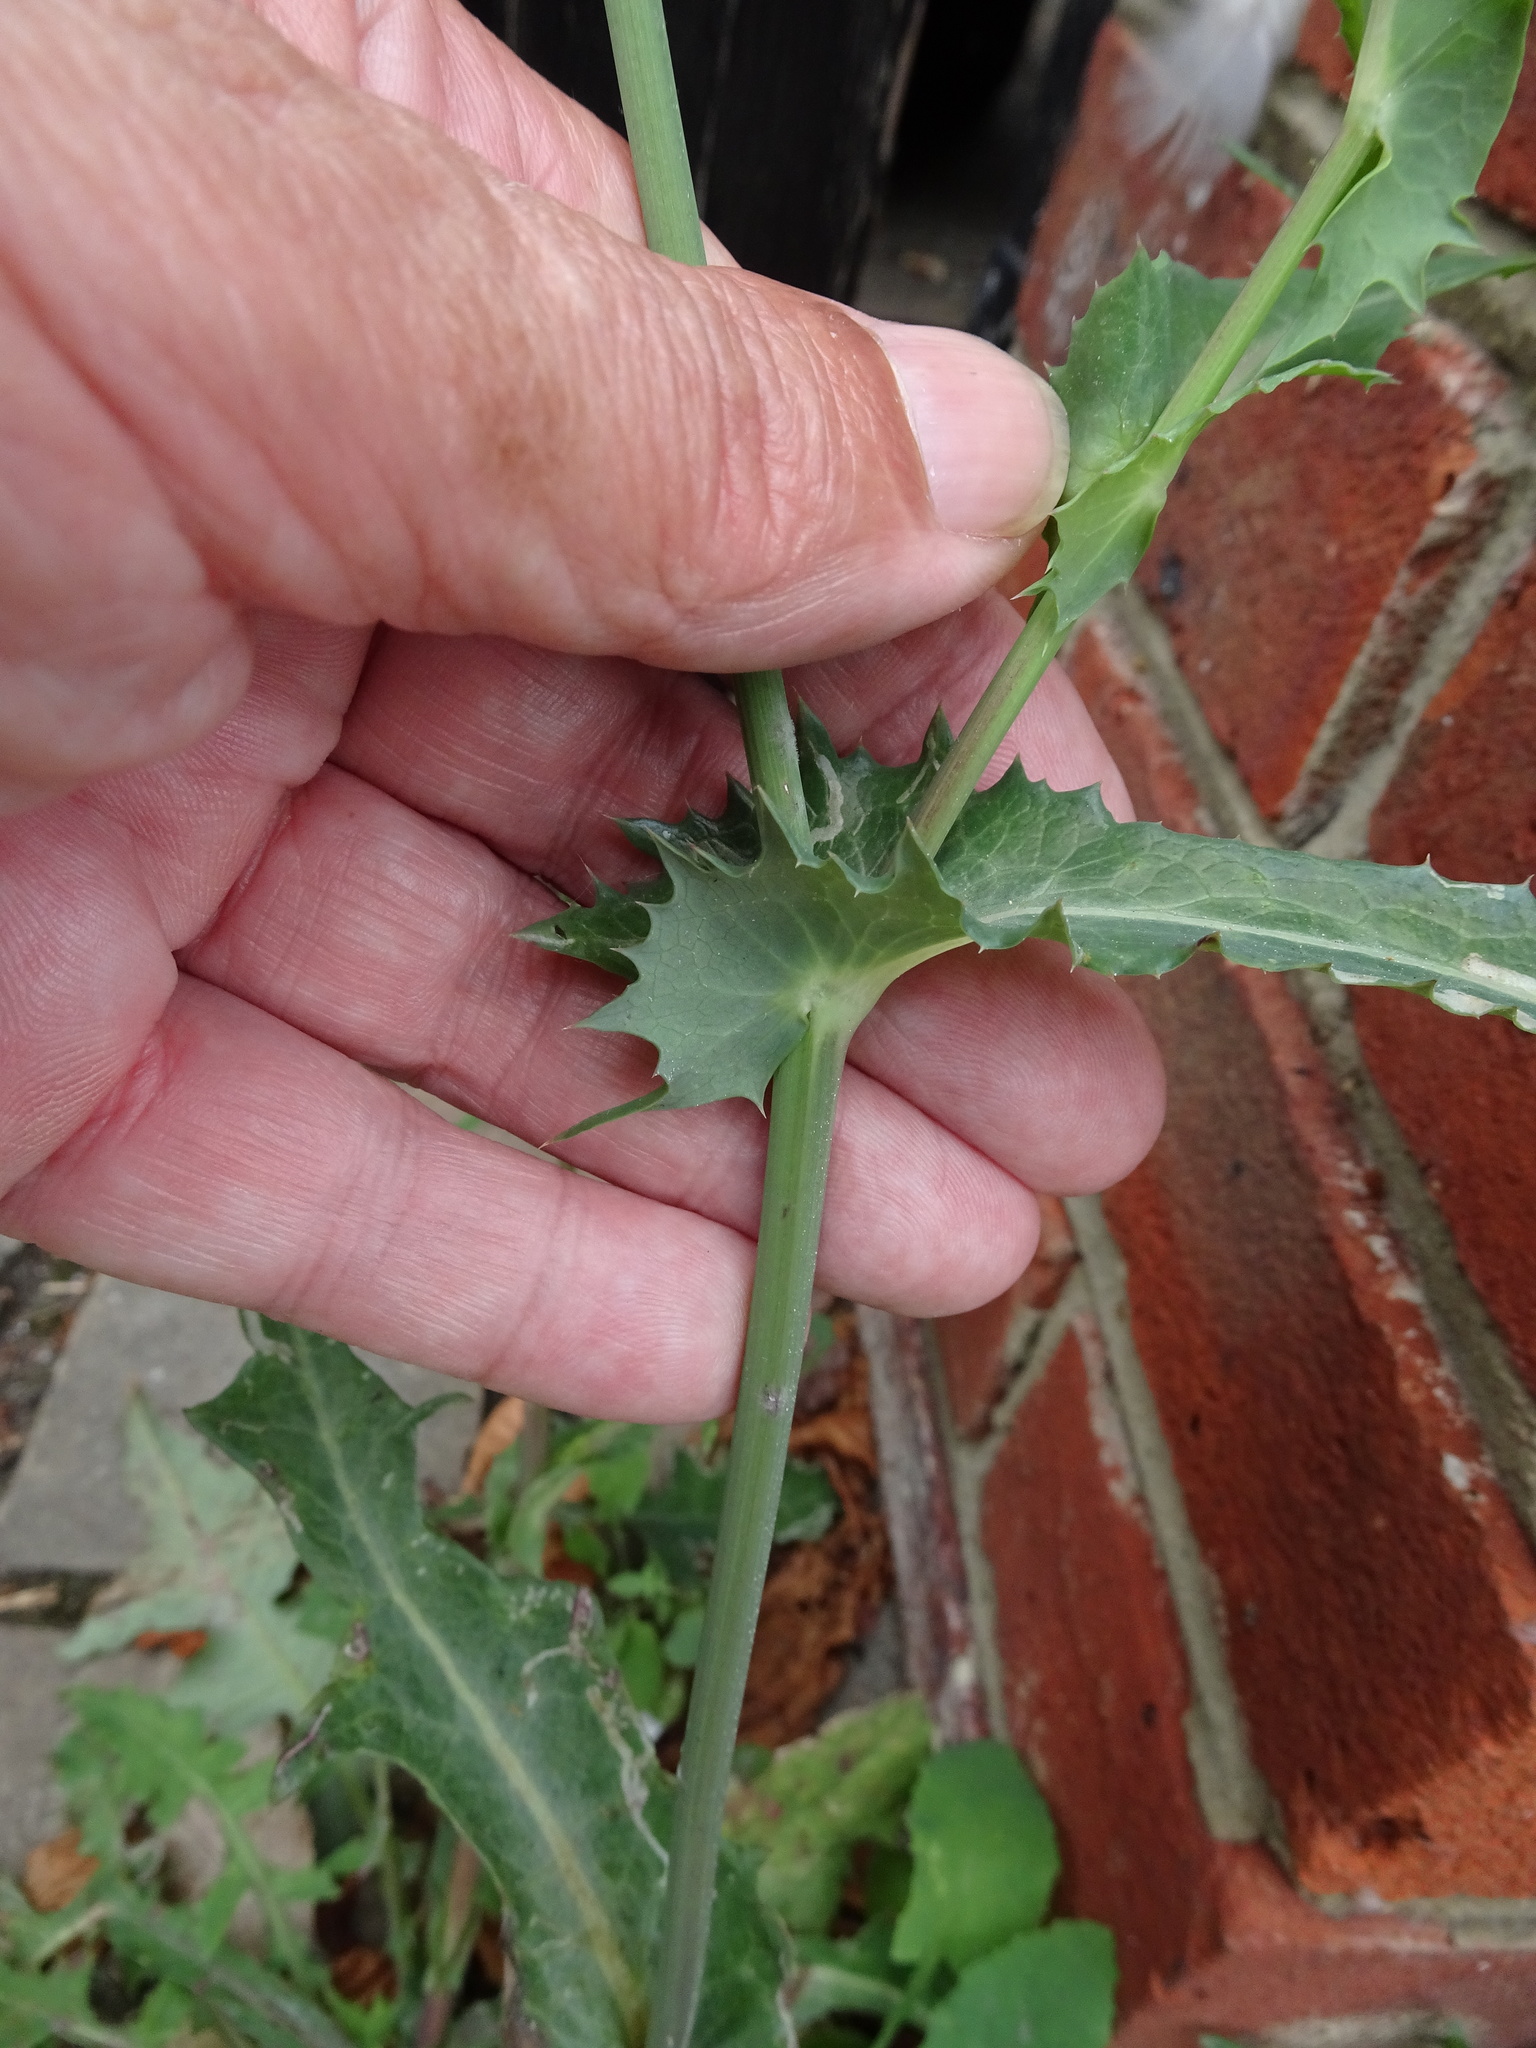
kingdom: Plantae
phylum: Tracheophyta
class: Magnoliopsida
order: Asterales
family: Asteraceae
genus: Sonchus
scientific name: Sonchus asper
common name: Prickly sow-thistle
